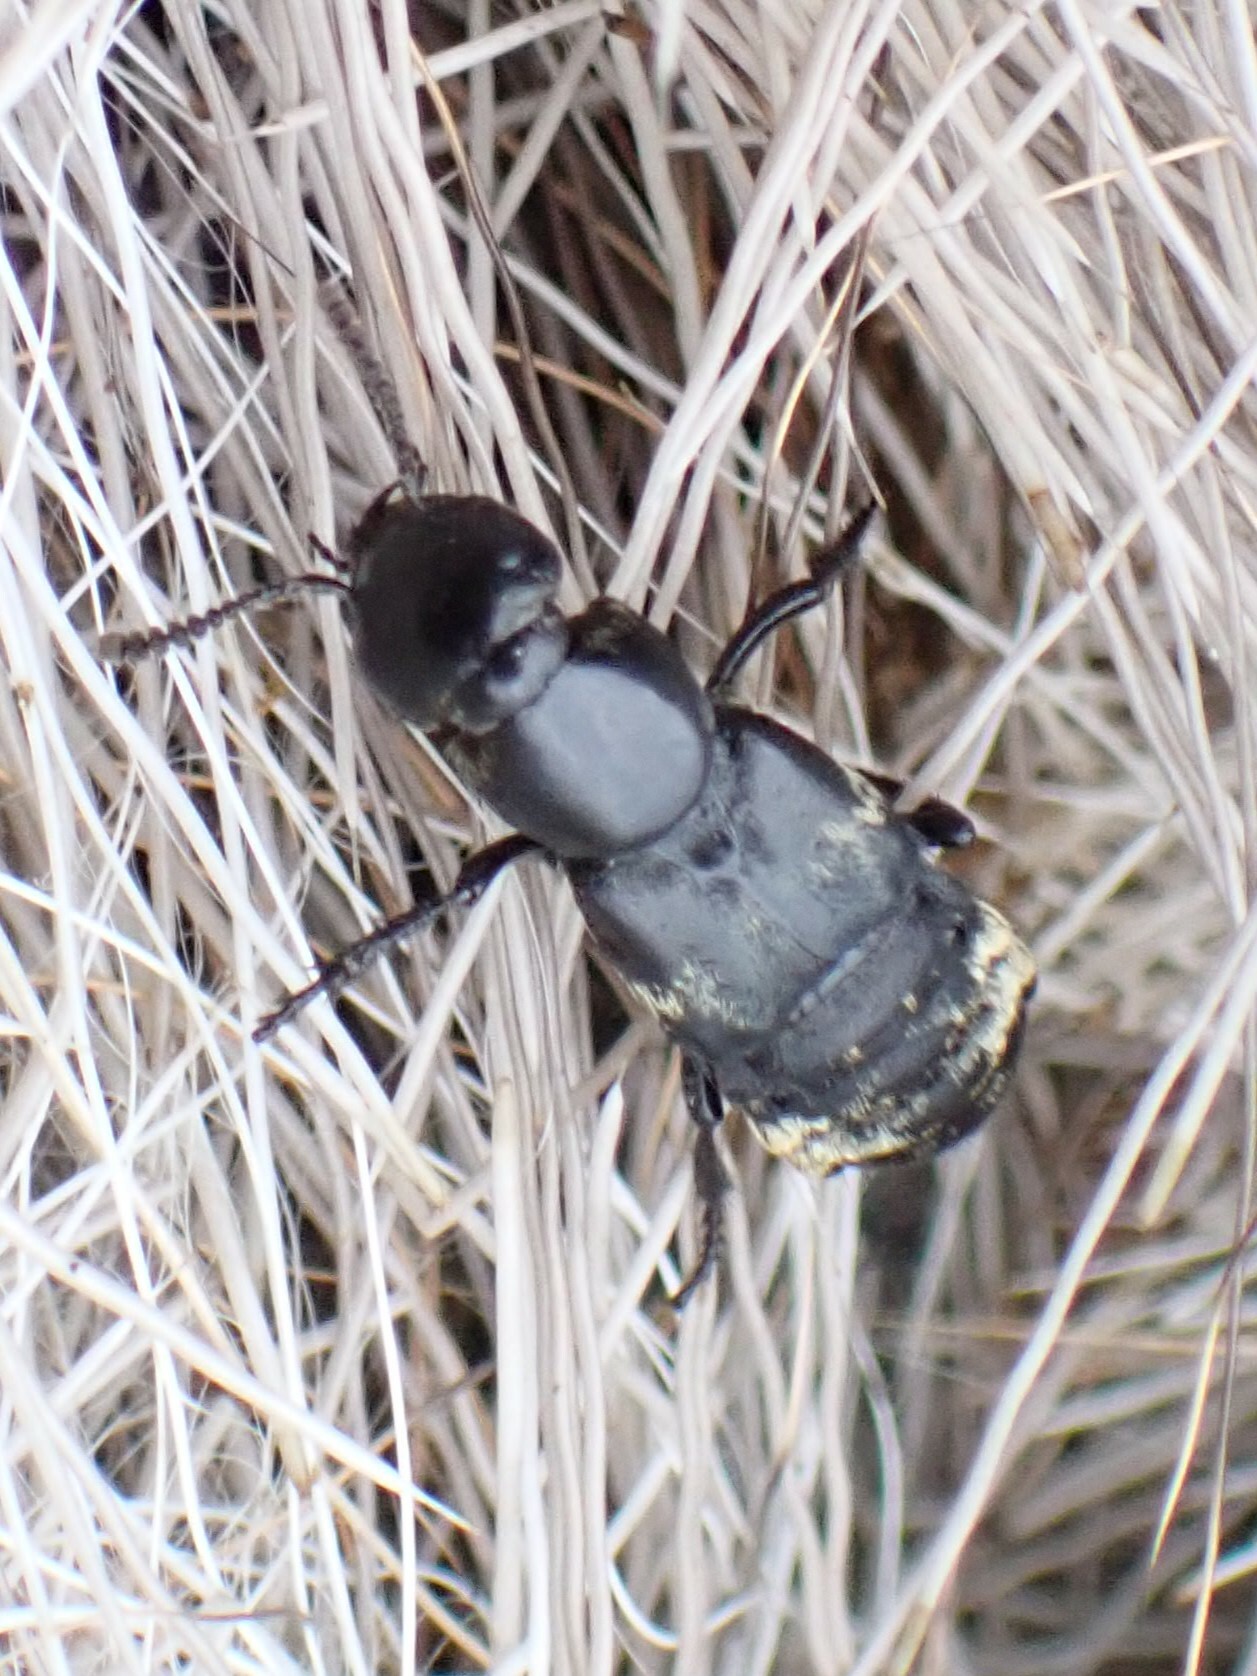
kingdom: Animalia
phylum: Arthropoda
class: Insecta
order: Coleoptera
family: Staphylinidae
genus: Creophilus
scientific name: Creophilus maxillosus
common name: Hairy rove beetle
